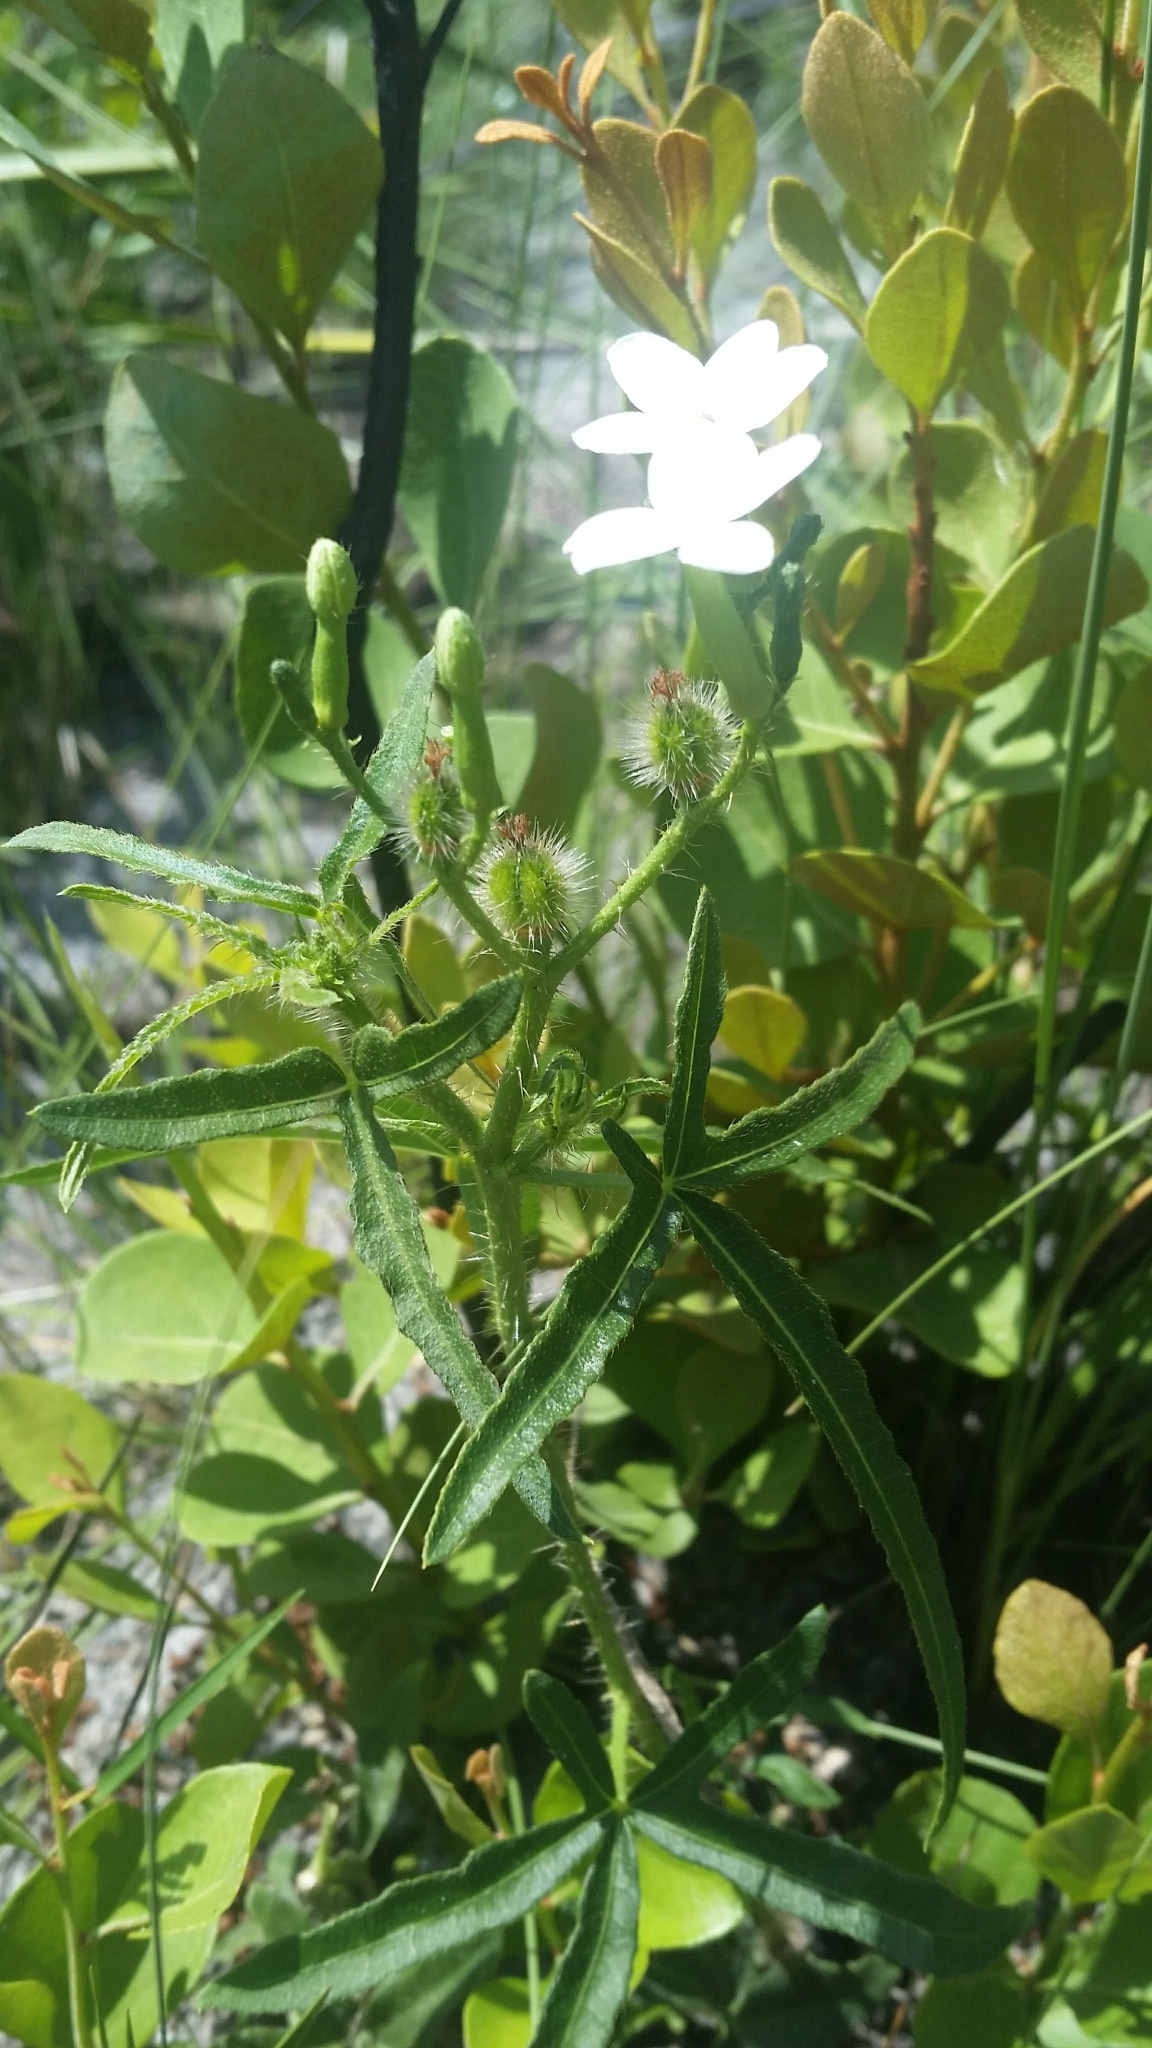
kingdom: Plantae
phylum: Tracheophyta
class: Magnoliopsida
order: Malpighiales
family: Euphorbiaceae
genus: Cnidoscolus
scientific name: Cnidoscolus stimulosus
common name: Bull-nettle
